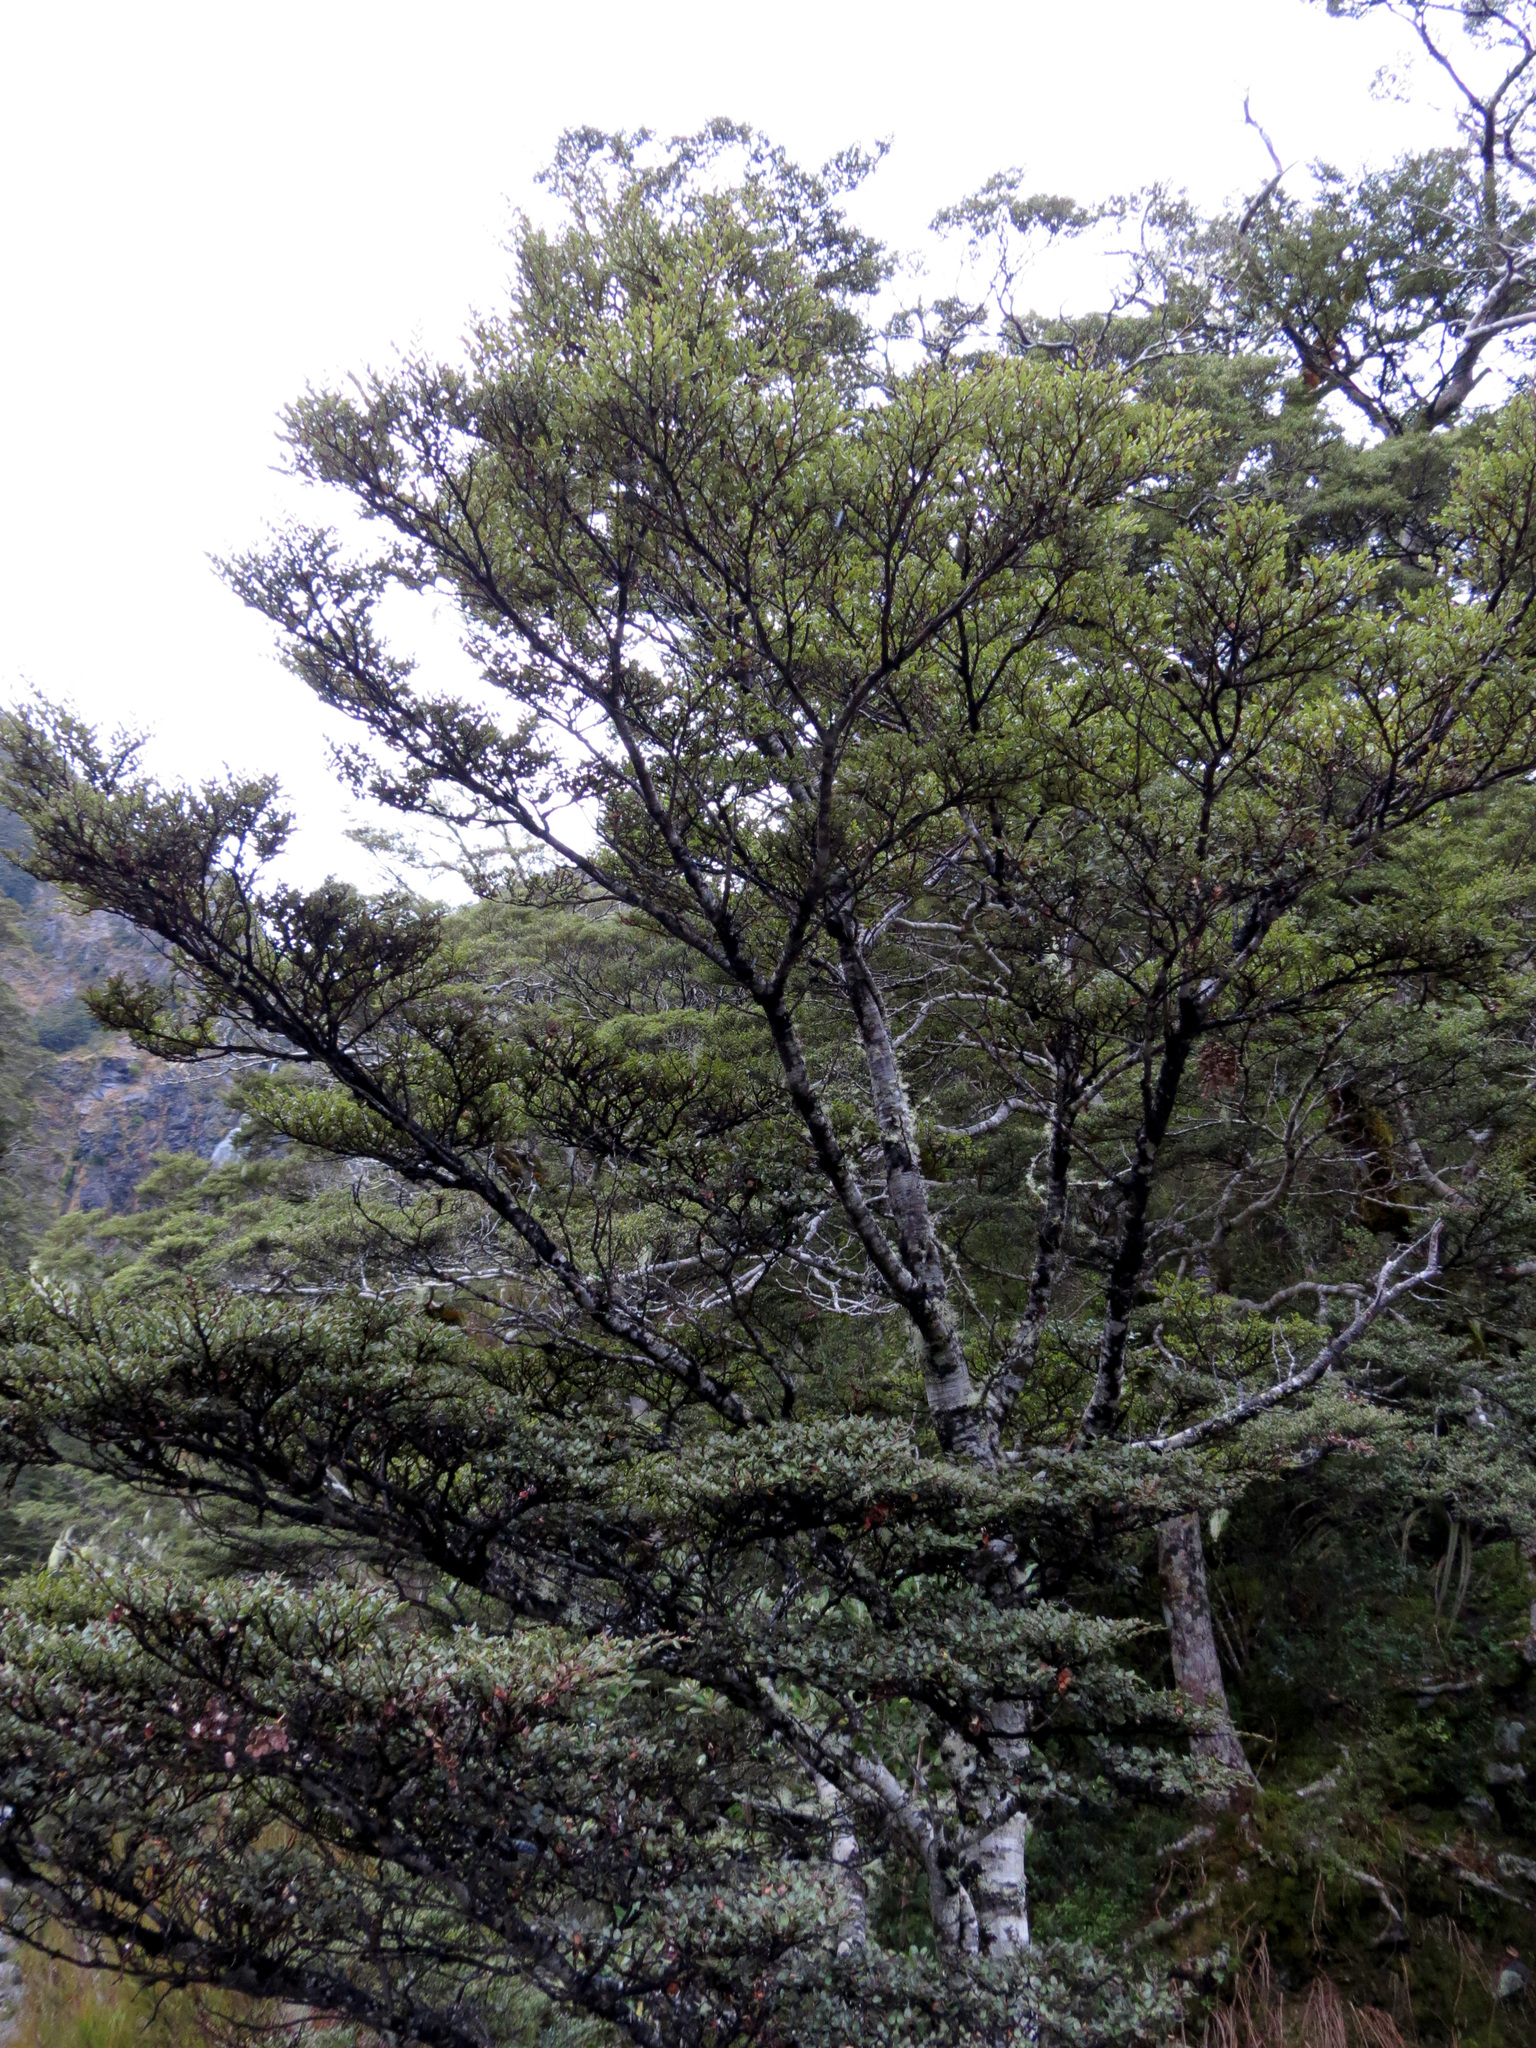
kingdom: Plantae
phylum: Tracheophyta
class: Magnoliopsida
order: Fagales
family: Nothofagaceae
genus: Nothofagus
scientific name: Nothofagus cliffortioides
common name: Mountain beech
